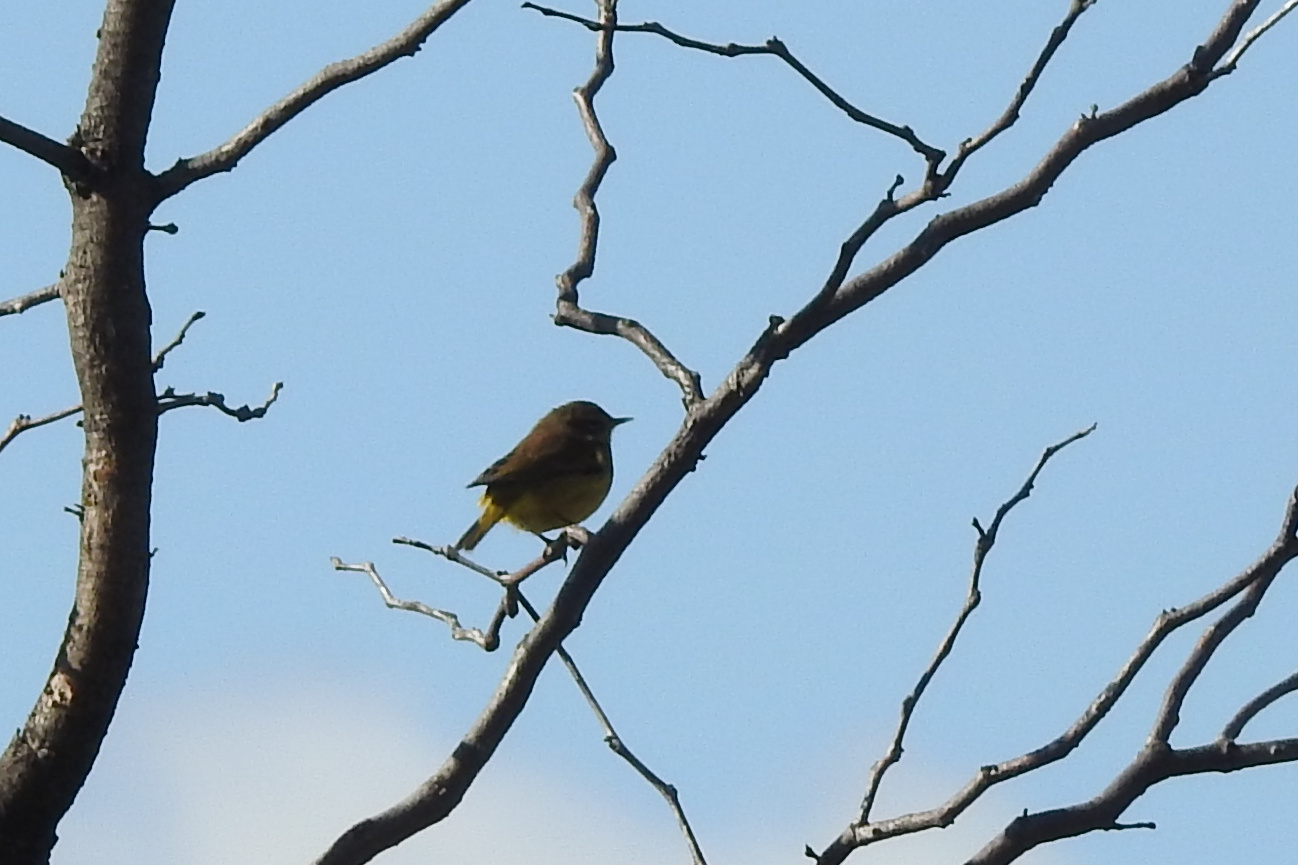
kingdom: Animalia
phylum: Chordata
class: Aves
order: Passeriformes
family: Parulidae
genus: Setophaga
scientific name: Setophaga palmarum
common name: Palm warbler
